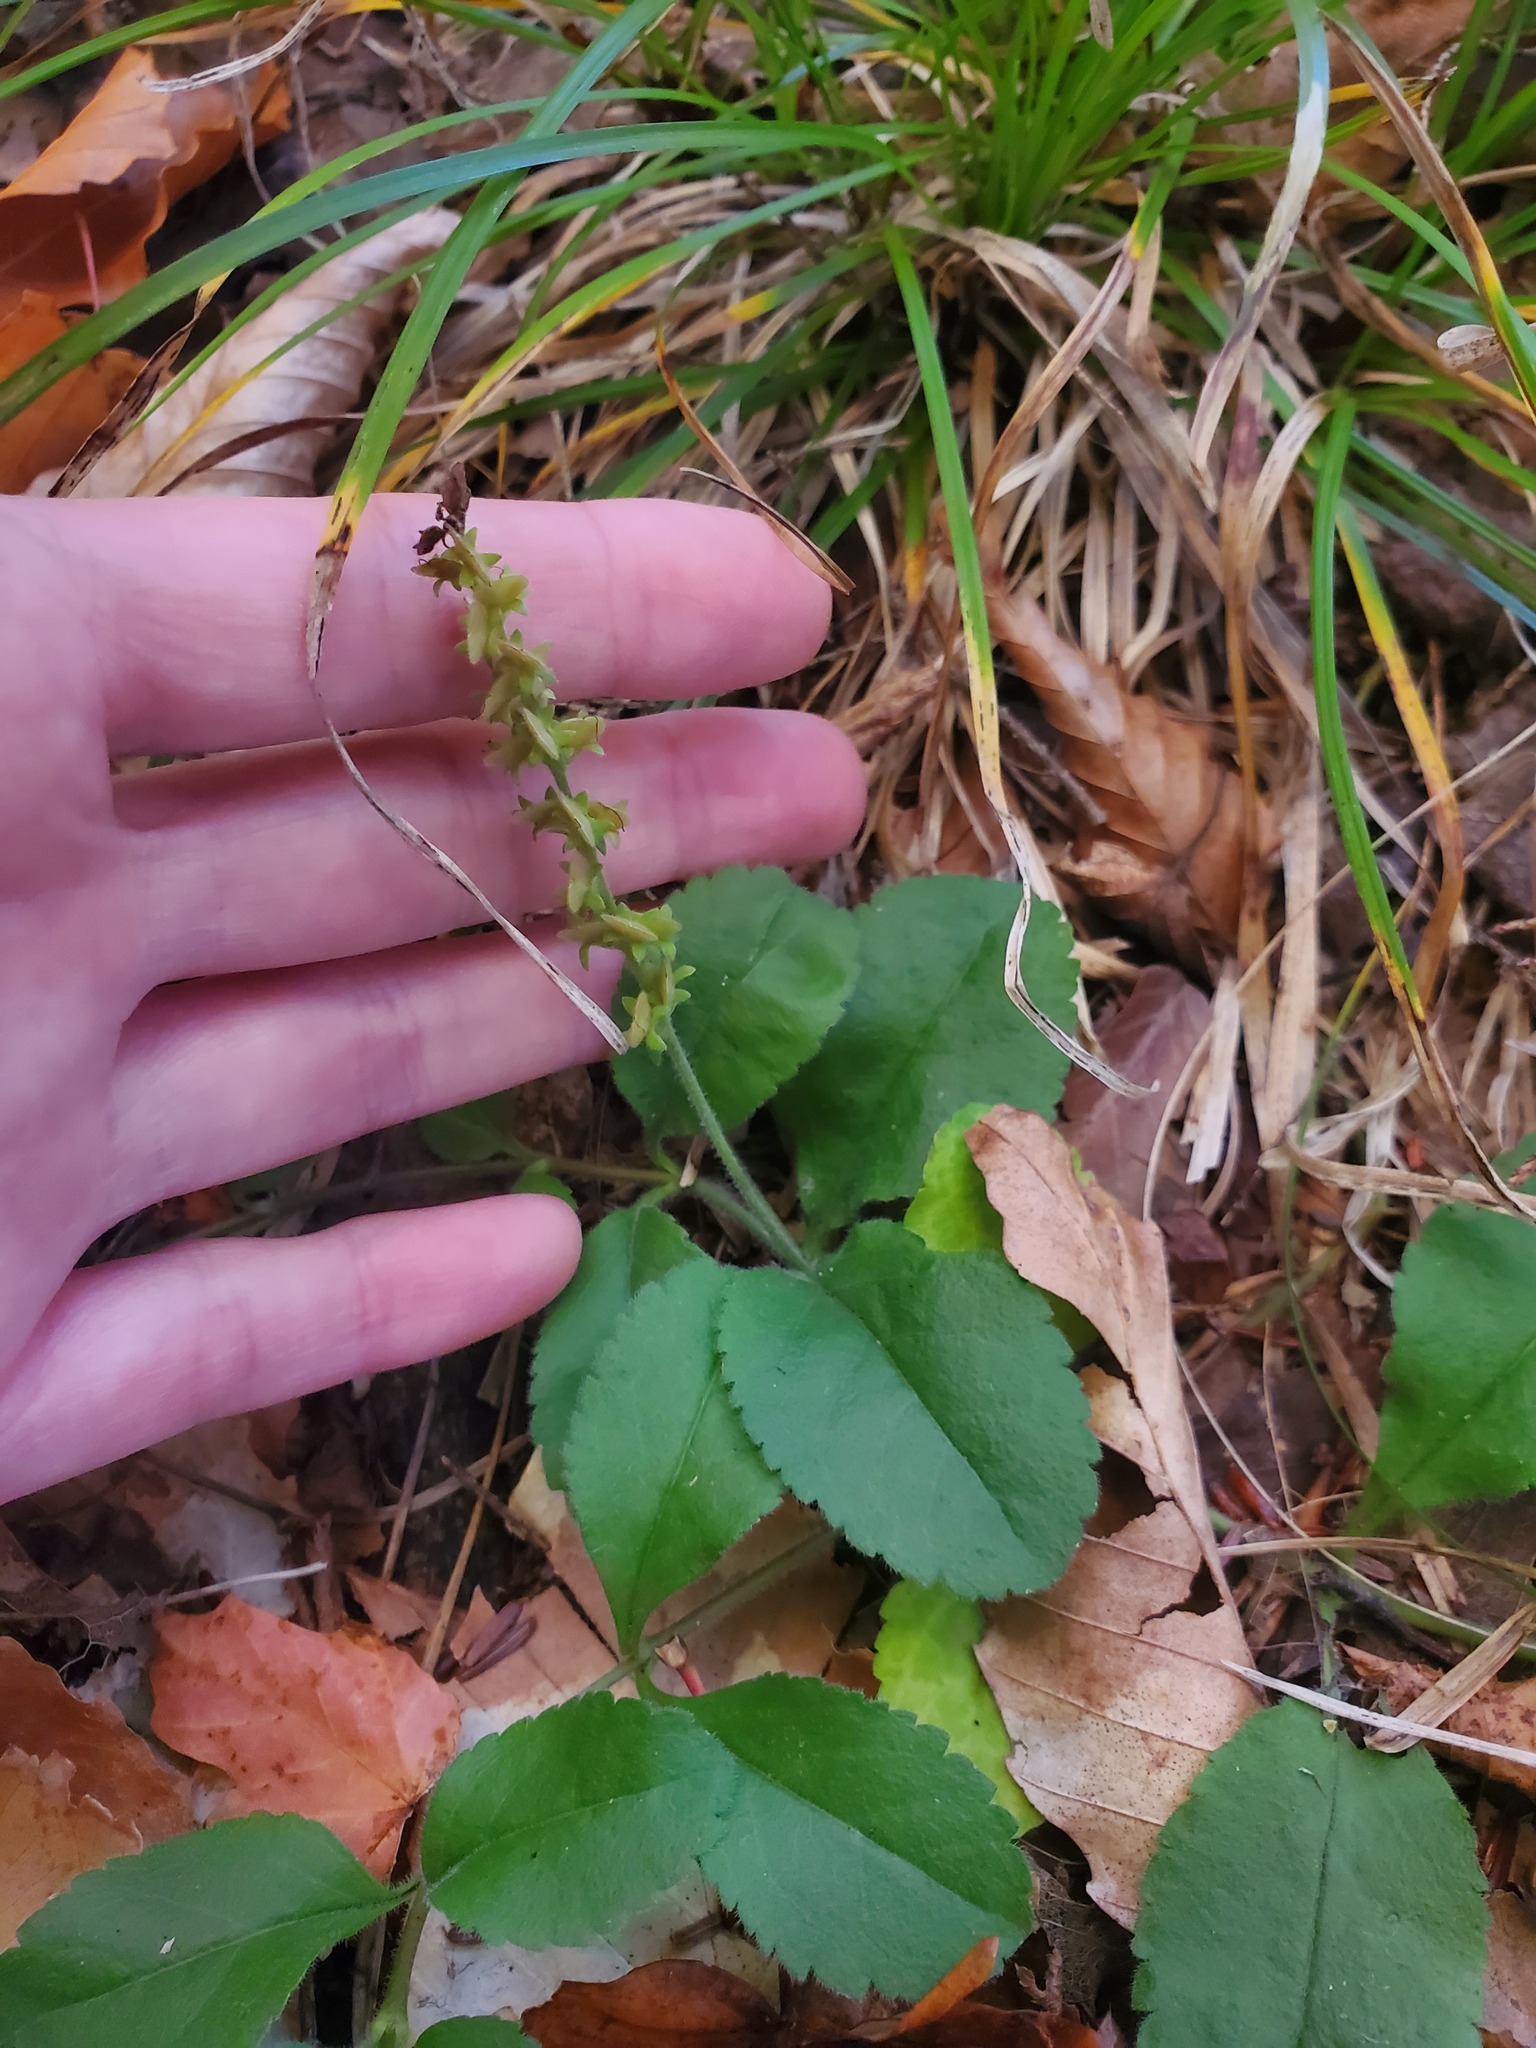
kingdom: Plantae
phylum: Tracheophyta
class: Magnoliopsida
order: Lamiales
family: Plantaginaceae
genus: Veronica
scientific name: Veronica officinalis
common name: Common speedwell
